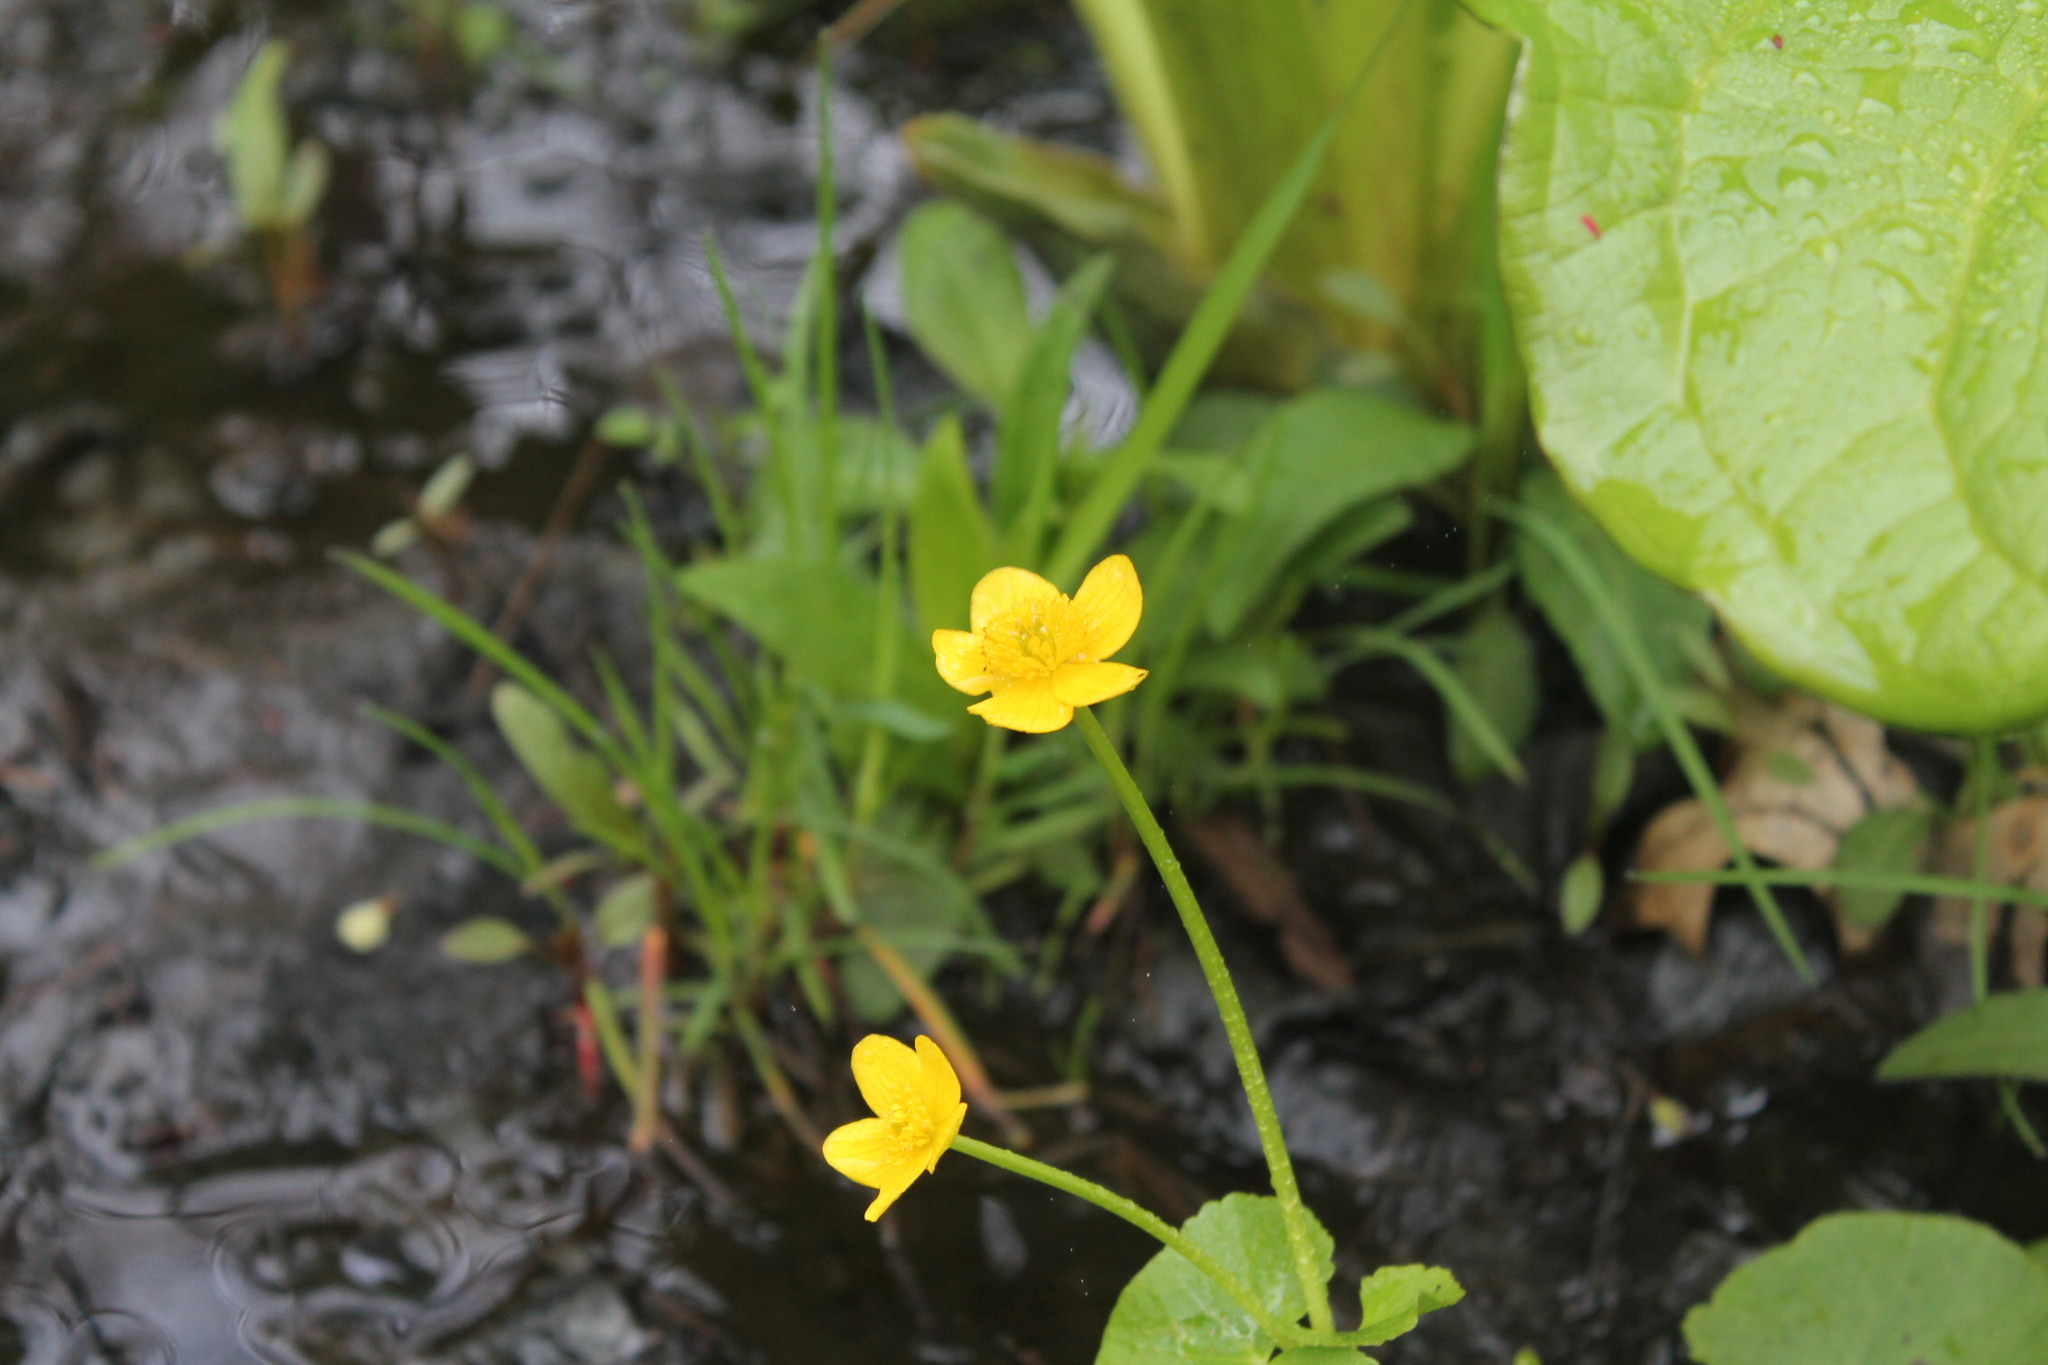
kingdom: Plantae
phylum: Tracheophyta
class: Magnoliopsida
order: Ranunculales
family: Ranunculaceae
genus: Caltha
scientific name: Caltha palustris
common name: Marsh marigold
